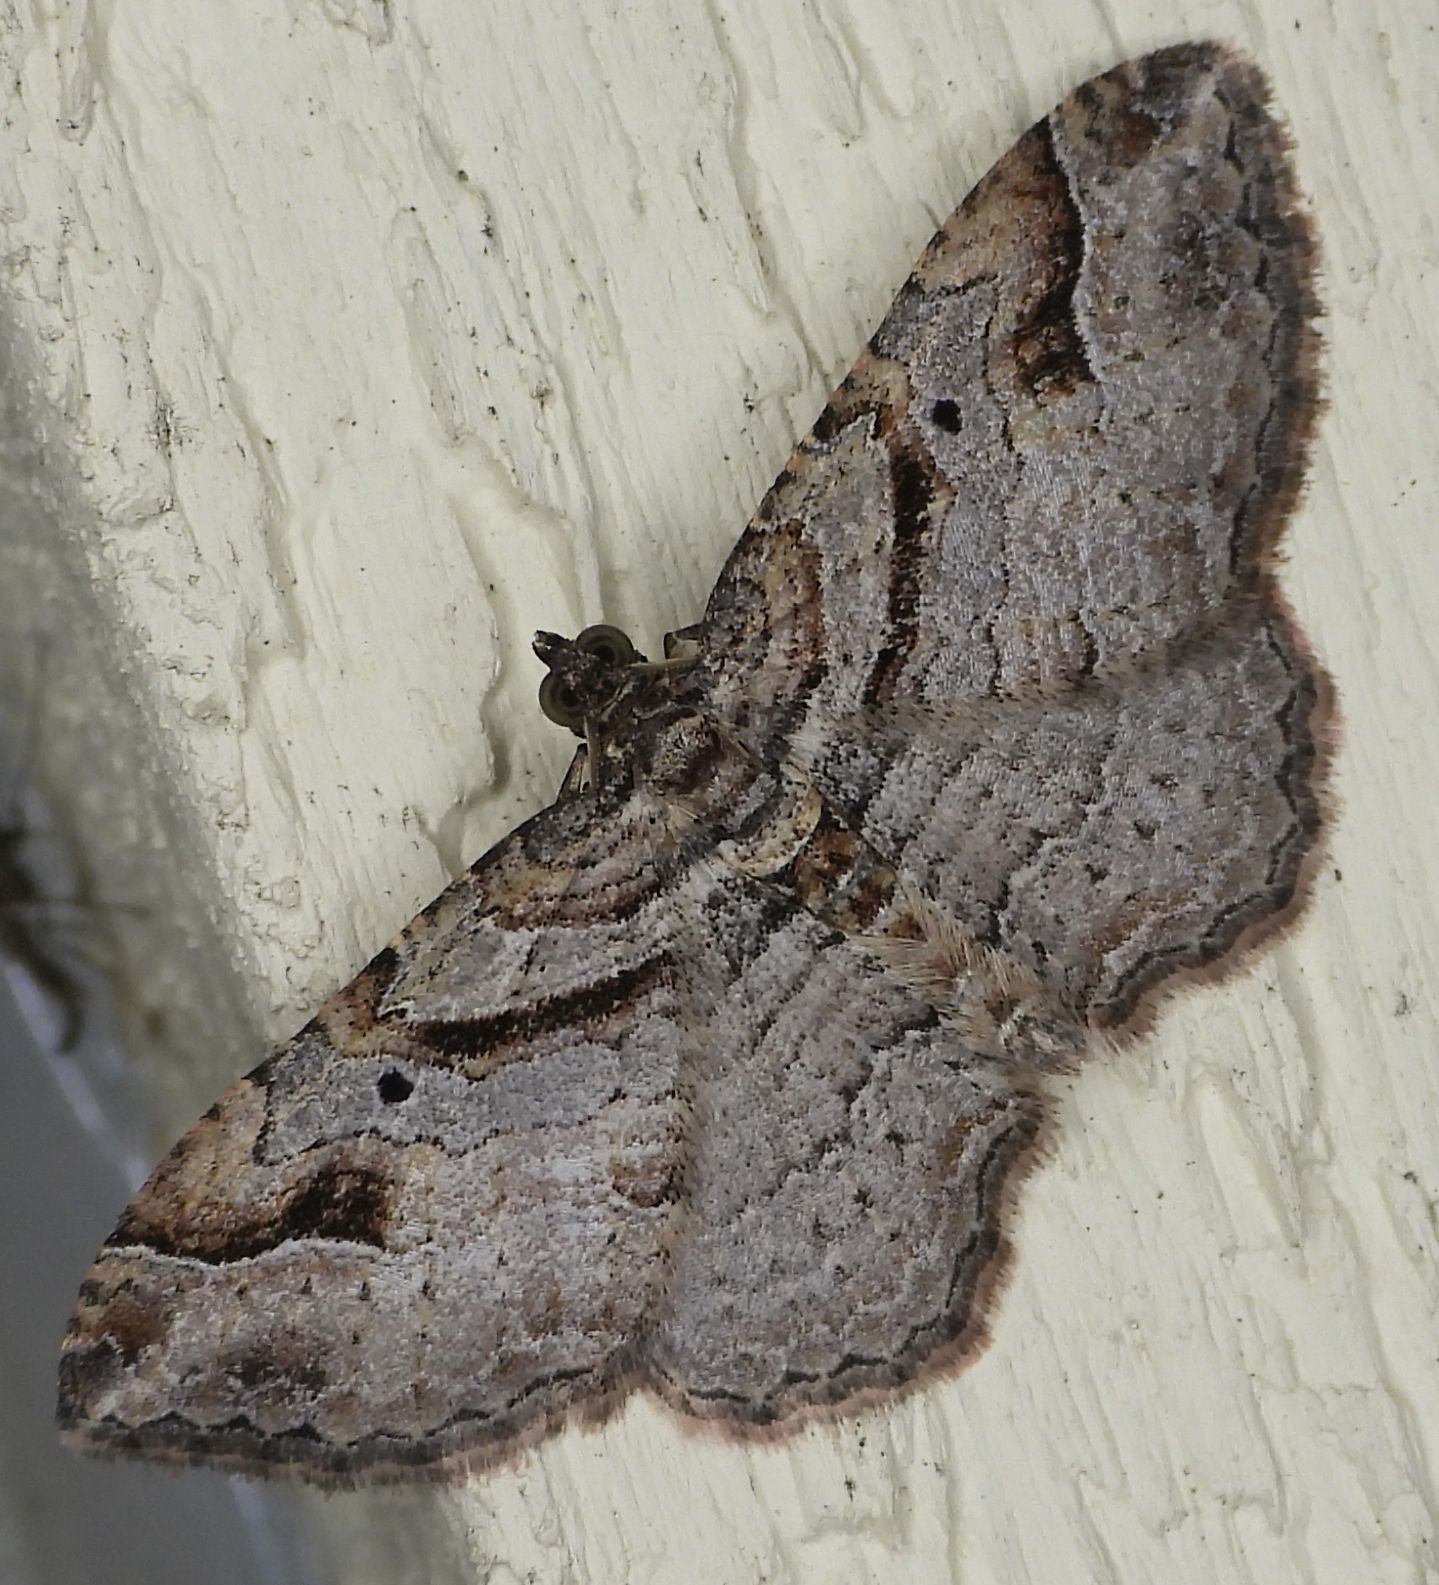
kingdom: Animalia
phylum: Arthropoda
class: Insecta
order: Lepidoptera
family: Geometridae
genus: Costaconvexa
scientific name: Costaconvexa centrostrigaria
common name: Bent-line carpet
